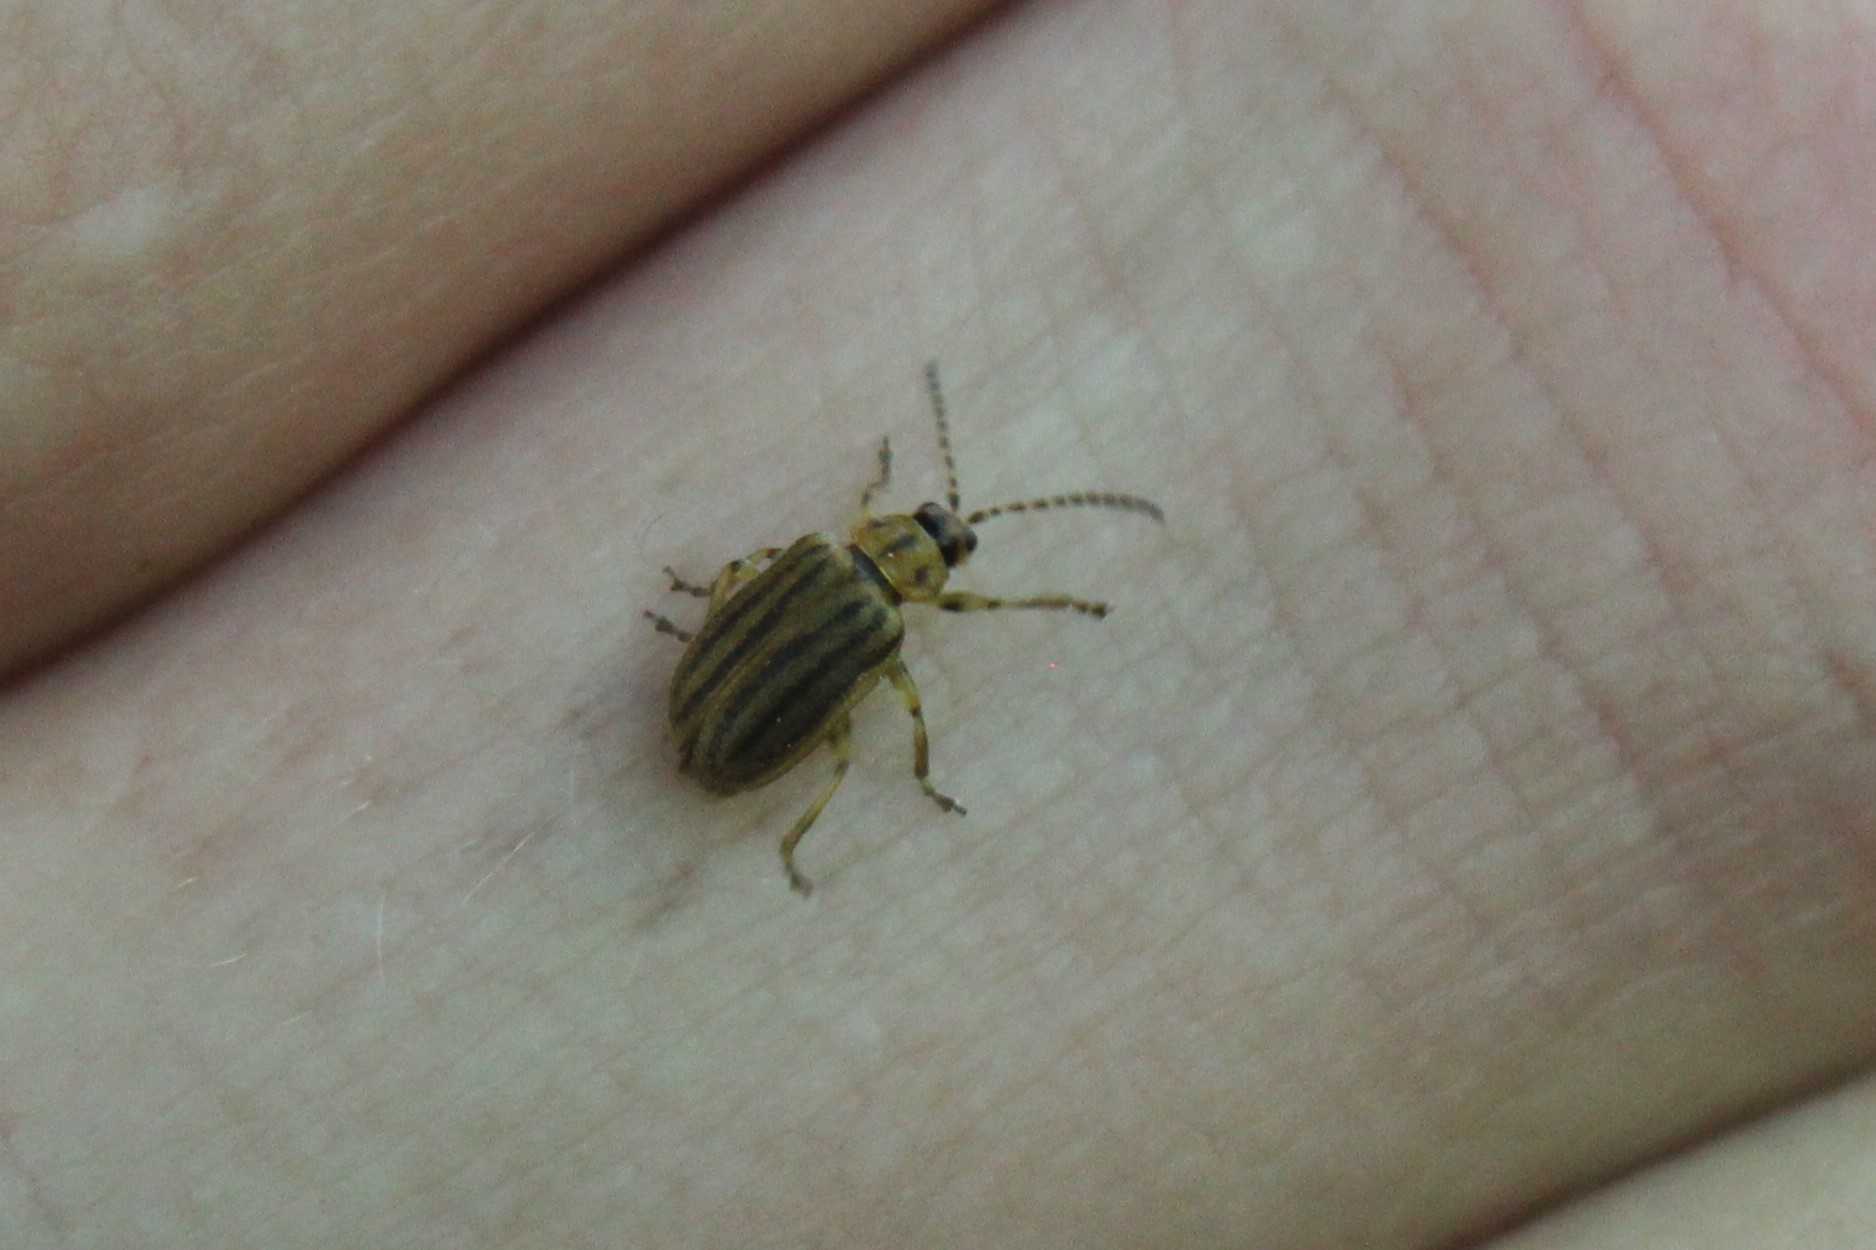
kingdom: Animalia
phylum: Arthropoda
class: Insecta
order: Coleoptera
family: Chrysomelidae
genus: Ophraella
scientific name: Ophraella conferta
